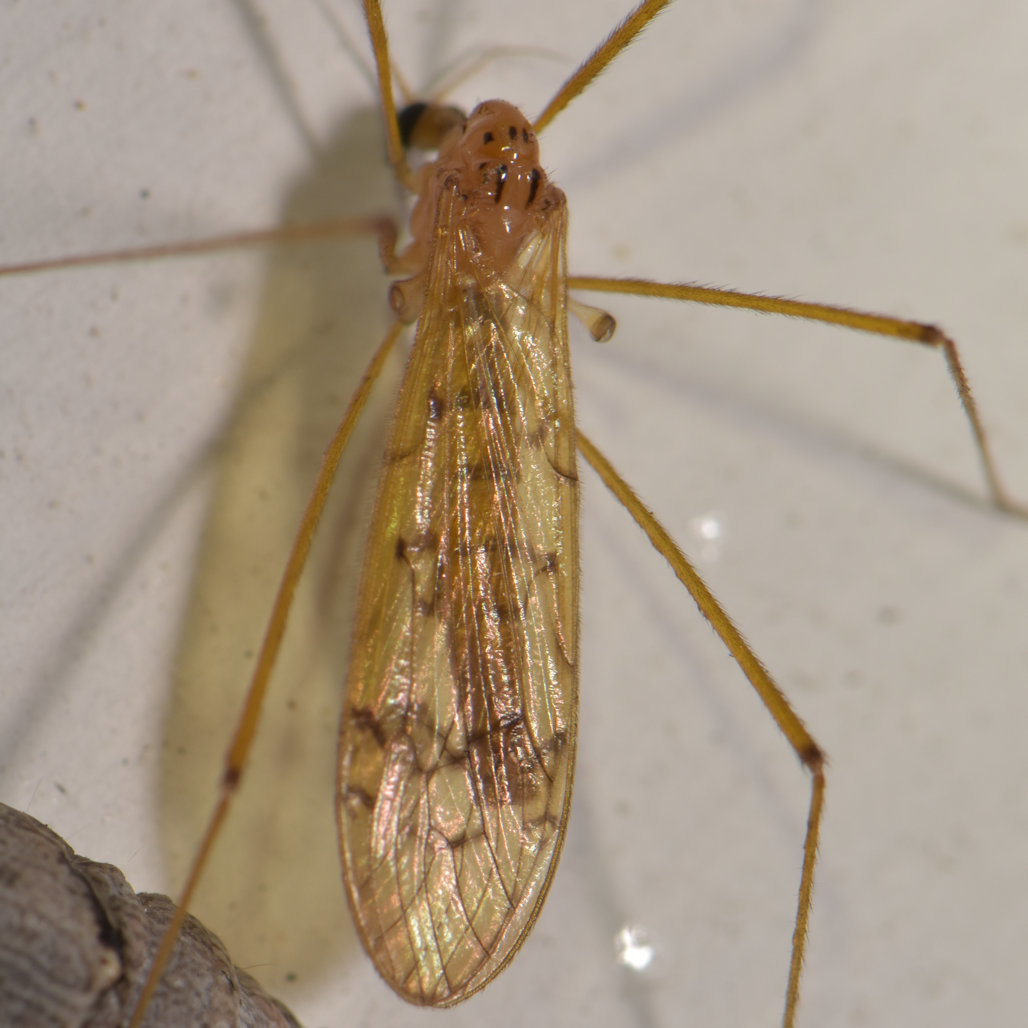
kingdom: Animalia
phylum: Arthropoda
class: Insecta
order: Diptera
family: Limoniidae
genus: Metalimnobia
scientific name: Metalimnobia triocellata
